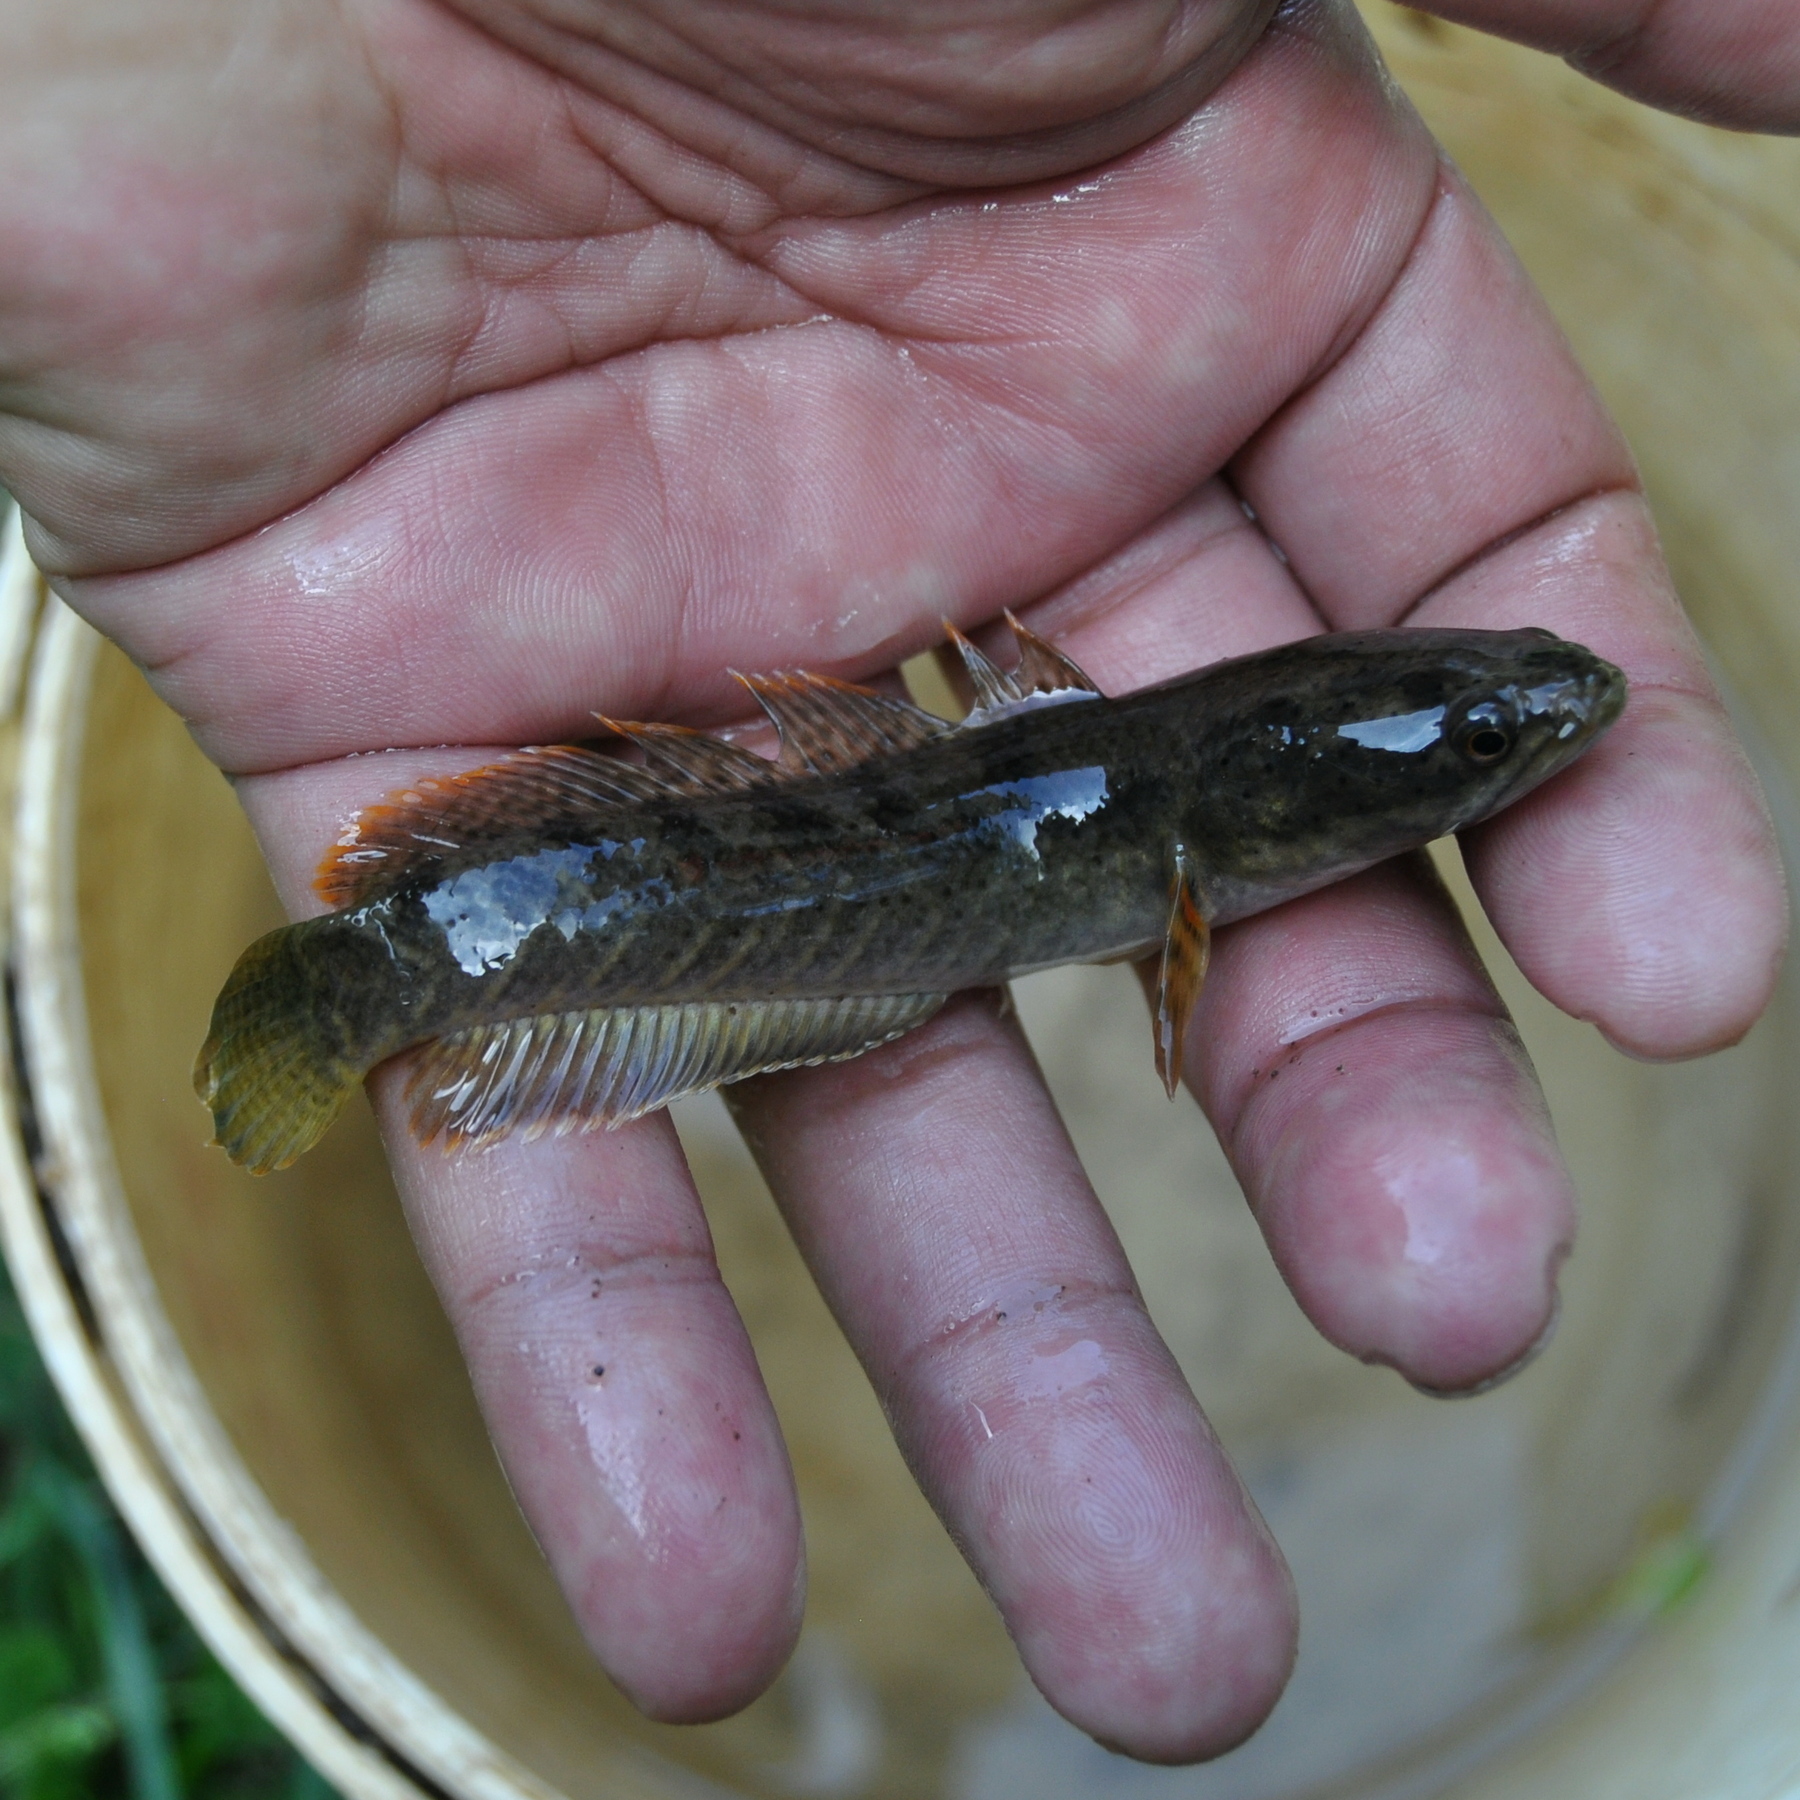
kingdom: Animalia
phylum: Chordata
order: Perciformes
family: Channidae
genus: Channa
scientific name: Channa gachua
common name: Dwarf snakehead
